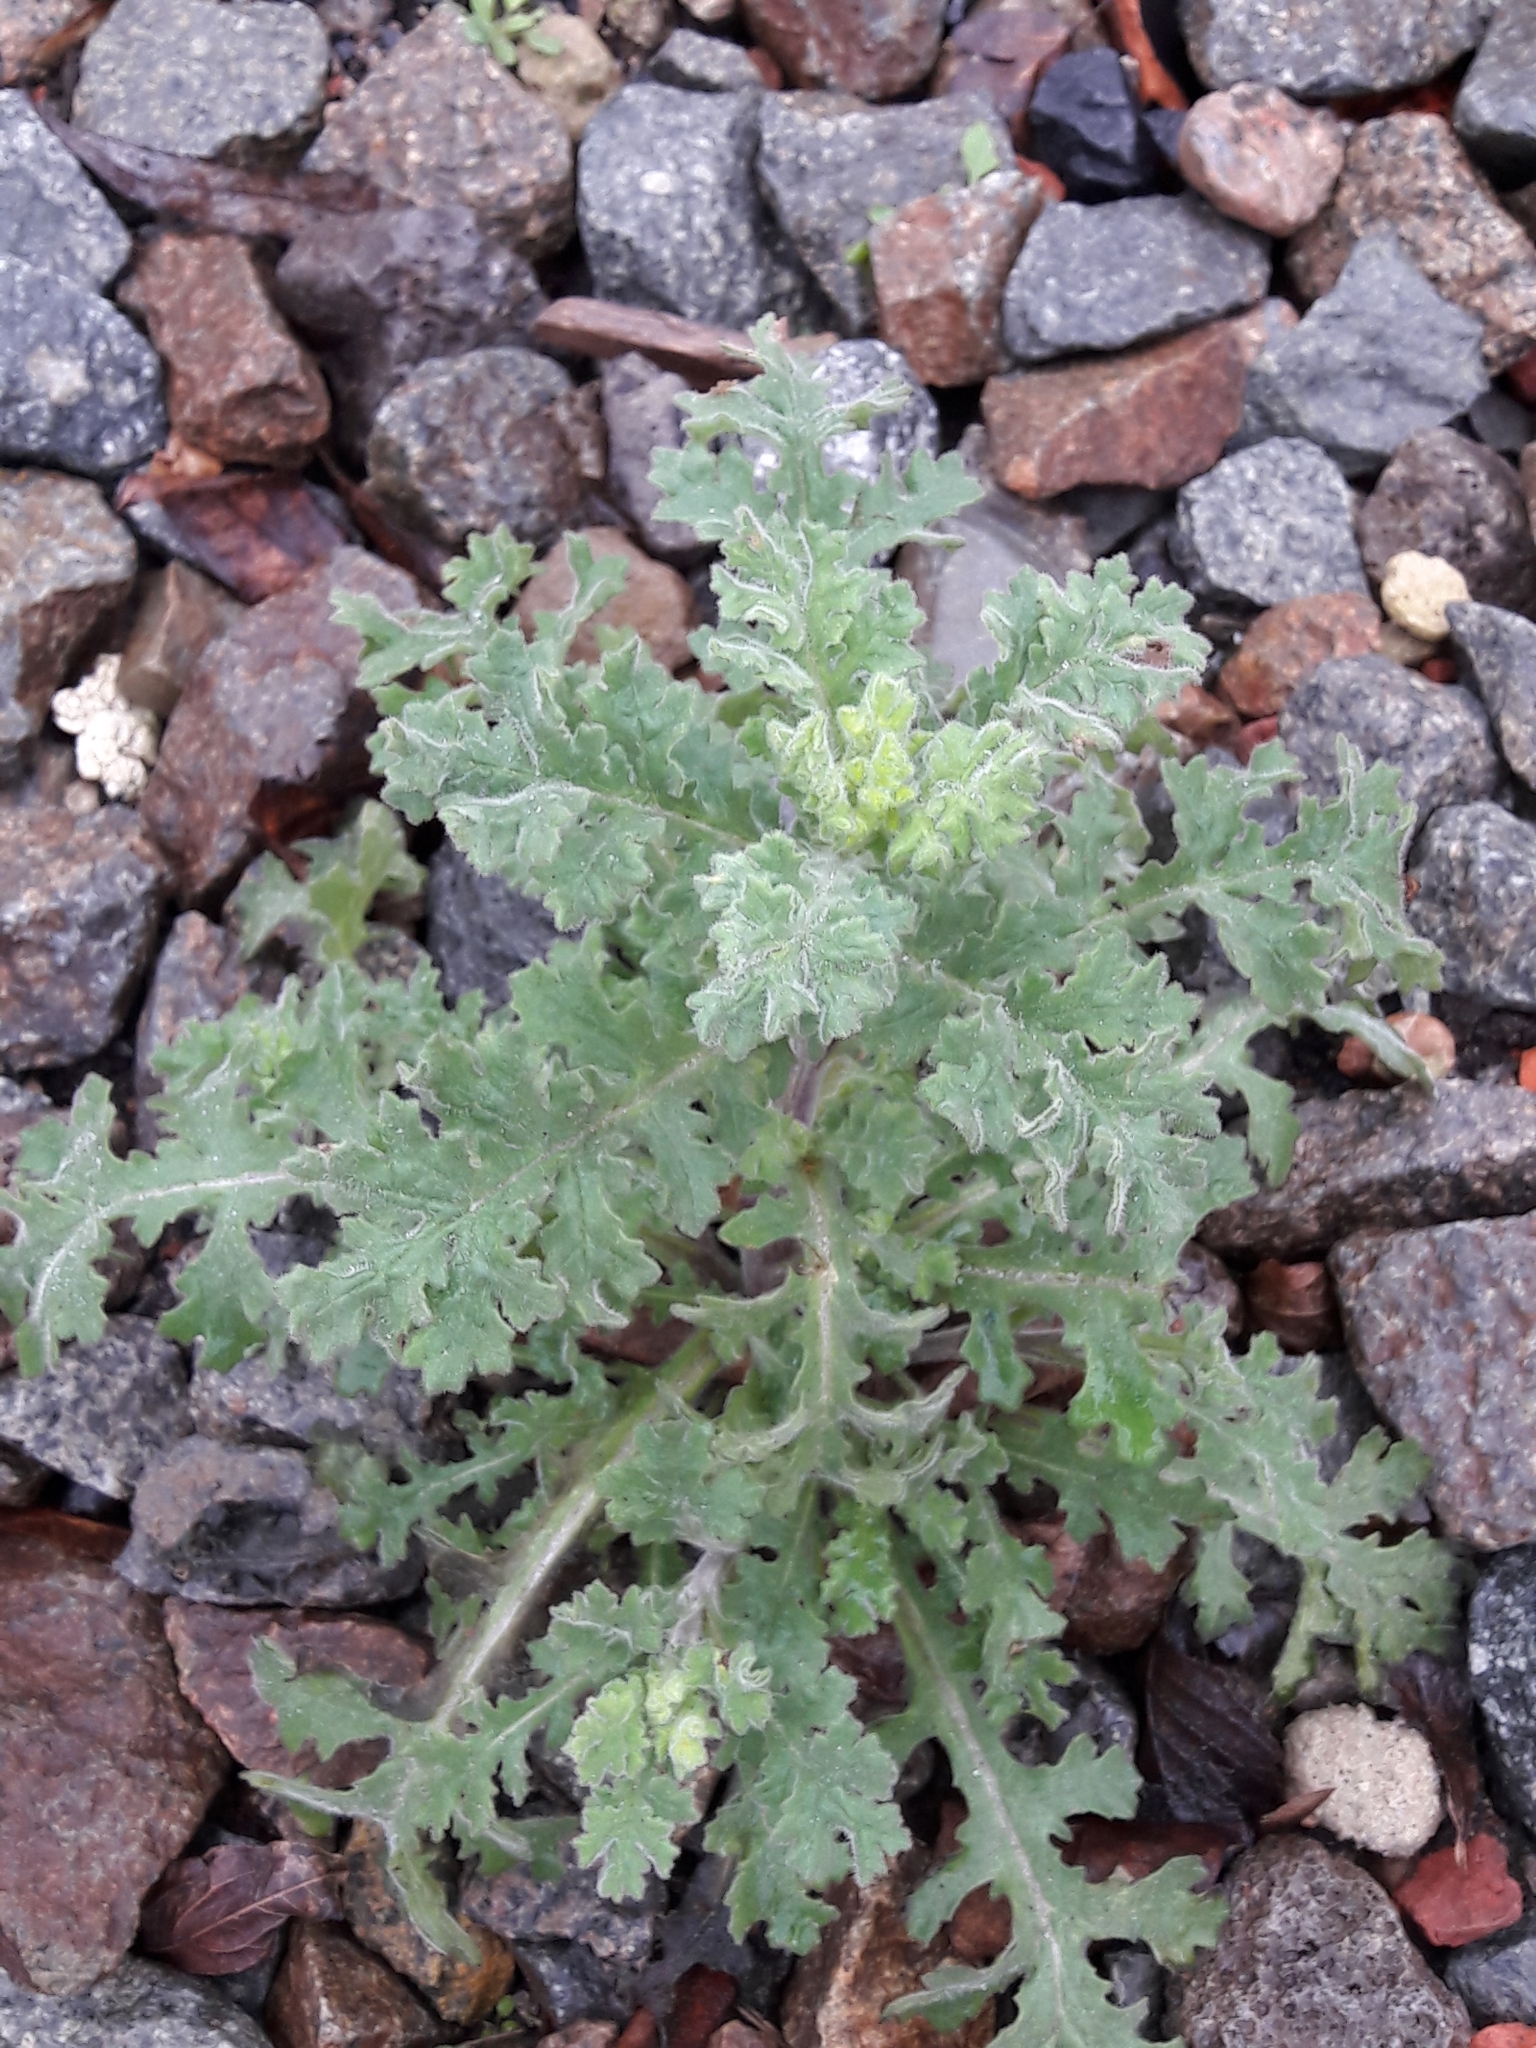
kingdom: Plantae
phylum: Tracheophyta
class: Magnoliopsida
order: Asterales
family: Asteraceae
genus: Senecio
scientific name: Senecio viscosus
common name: Sticky groundsel
